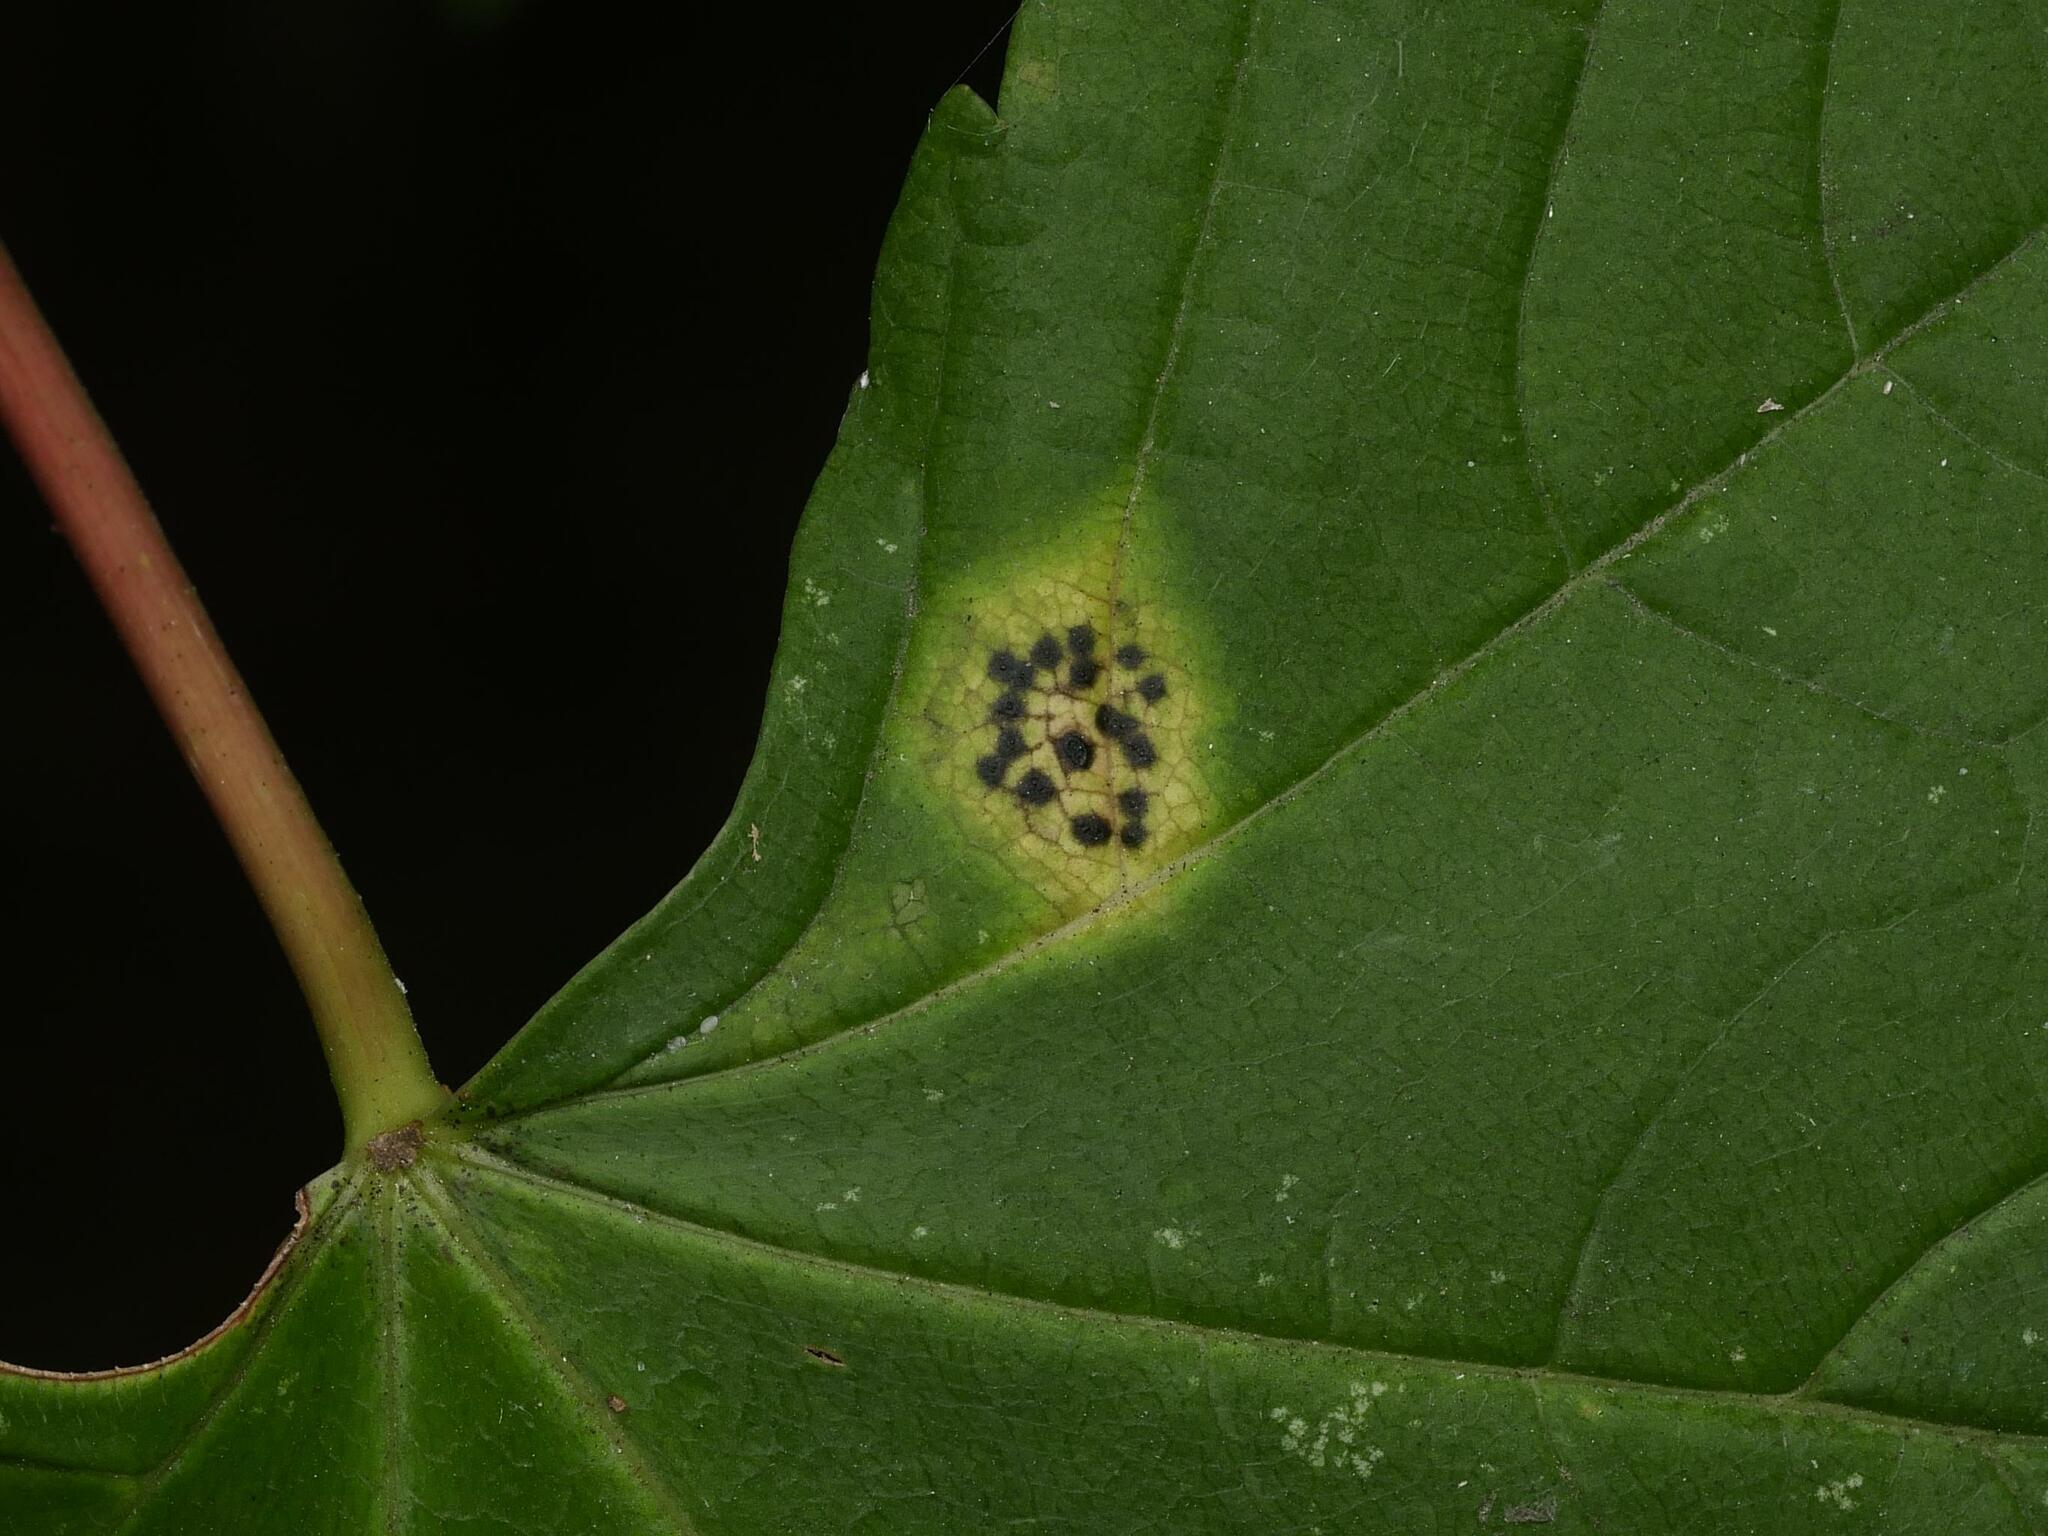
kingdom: Fungi
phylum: Ascomycota
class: Leotiomycetes
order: Rhytismatales
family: Rhytismataceae
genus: Rhytisma
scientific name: Rhytisma acerinum
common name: European tar spot
